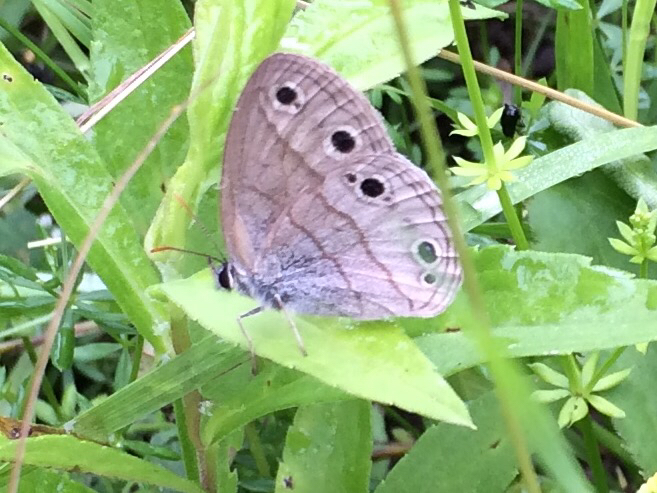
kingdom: Animalia
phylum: Arthropoda
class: Insecta
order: Lepidoptera
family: Nymphalidae
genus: Euptychia
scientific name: Euptychia cymela
